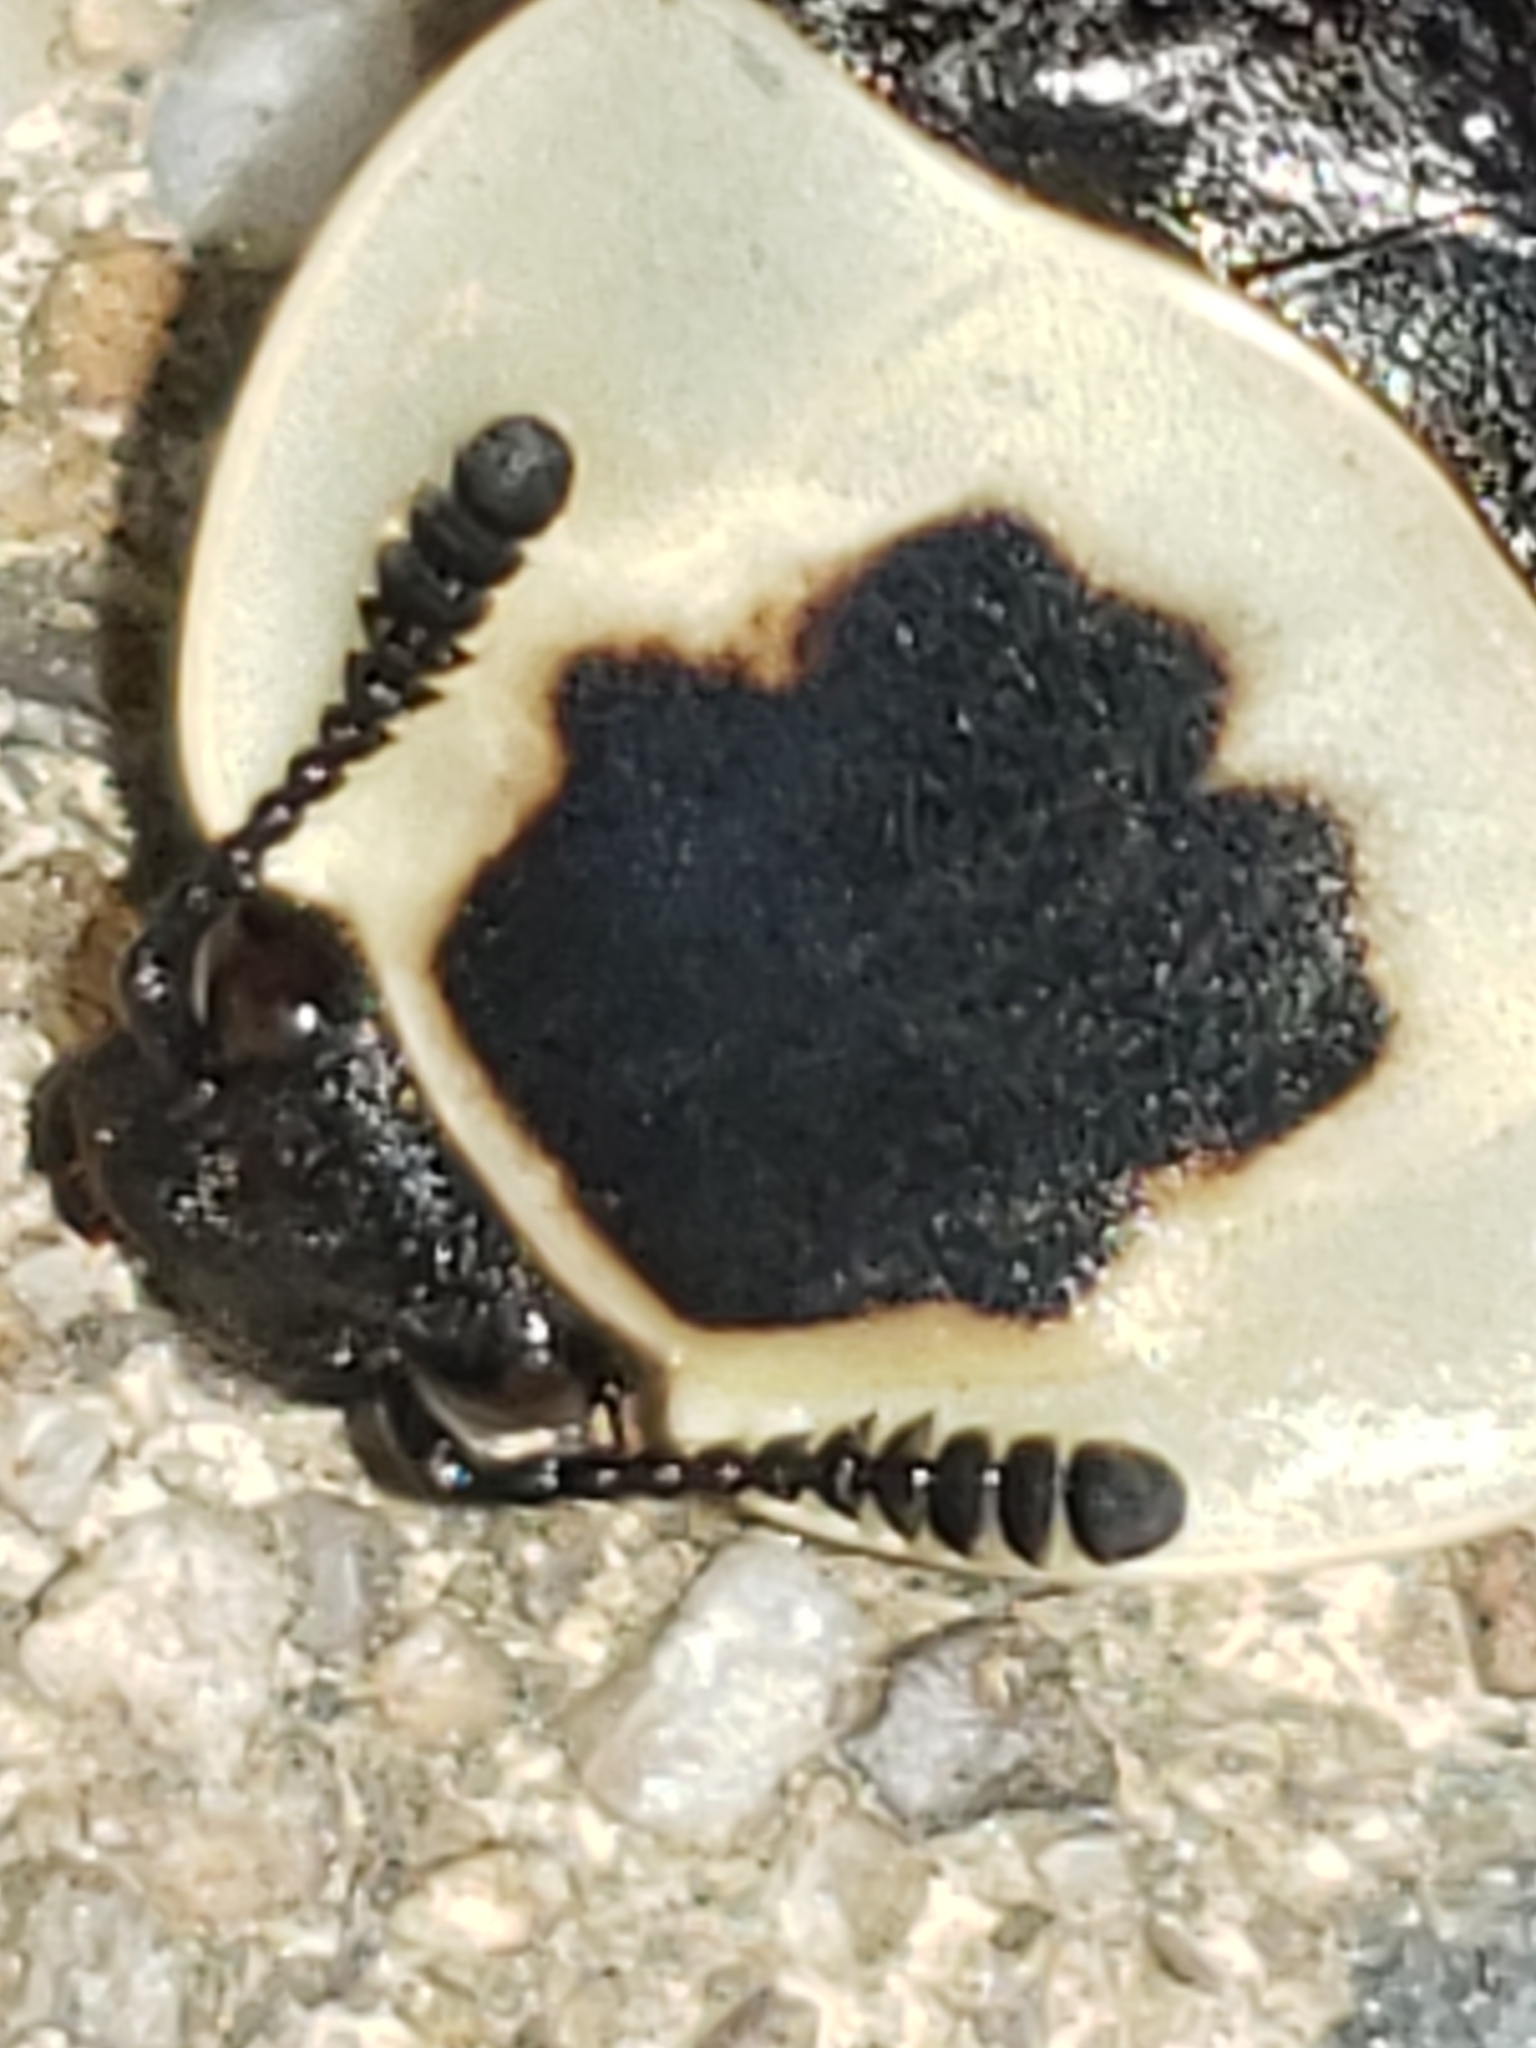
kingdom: Animalia
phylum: Arthropoda
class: Insecta
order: Coleoptera
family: Staphylinidae
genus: Necrophila
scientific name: Necrophila americana
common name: American carrion beetle
